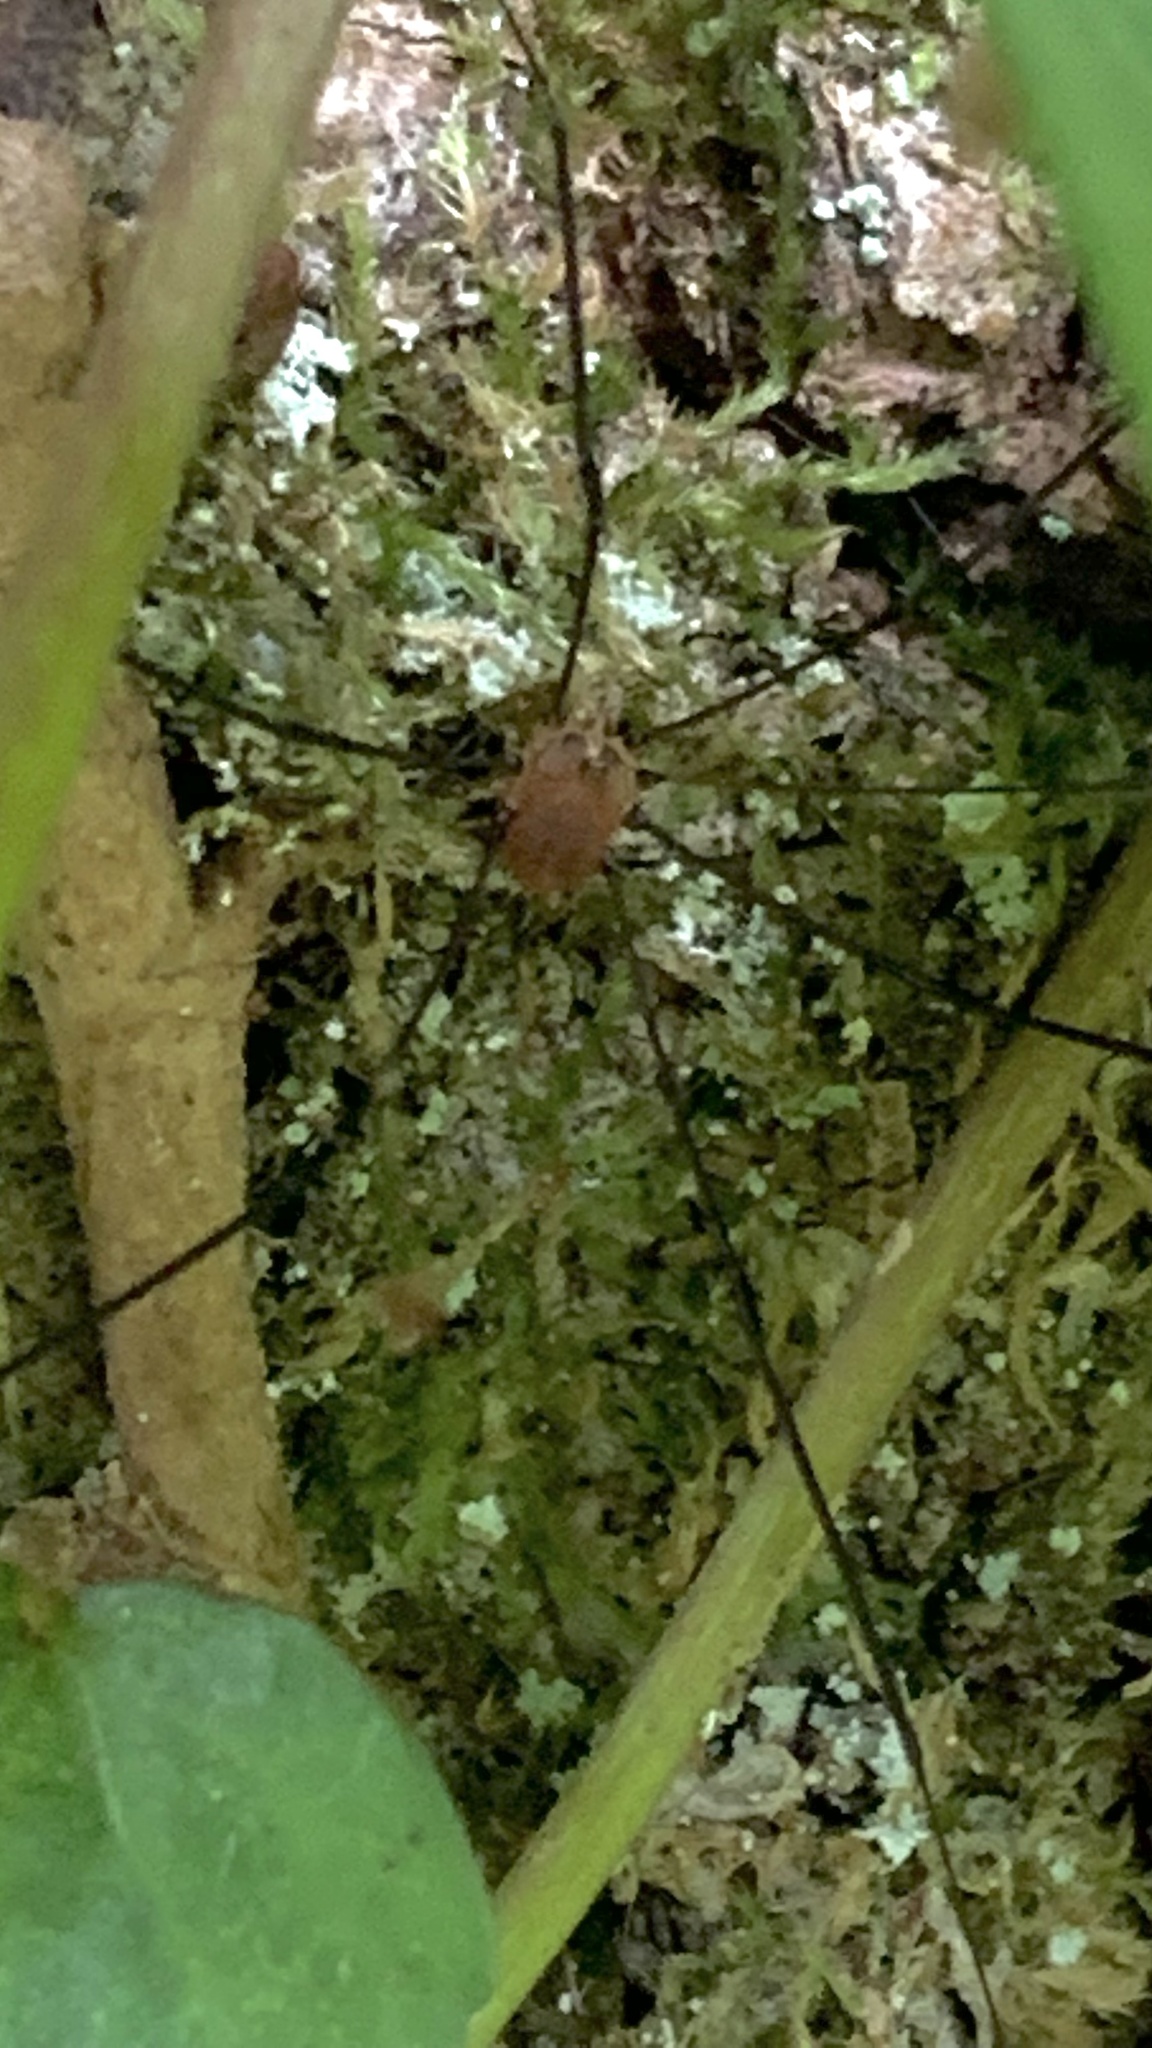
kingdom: Animalia
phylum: Arthropoda
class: Arachnida
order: Opiliones
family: Sclerosomatidae
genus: Leiobunum
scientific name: Leiobunum blackwalli
